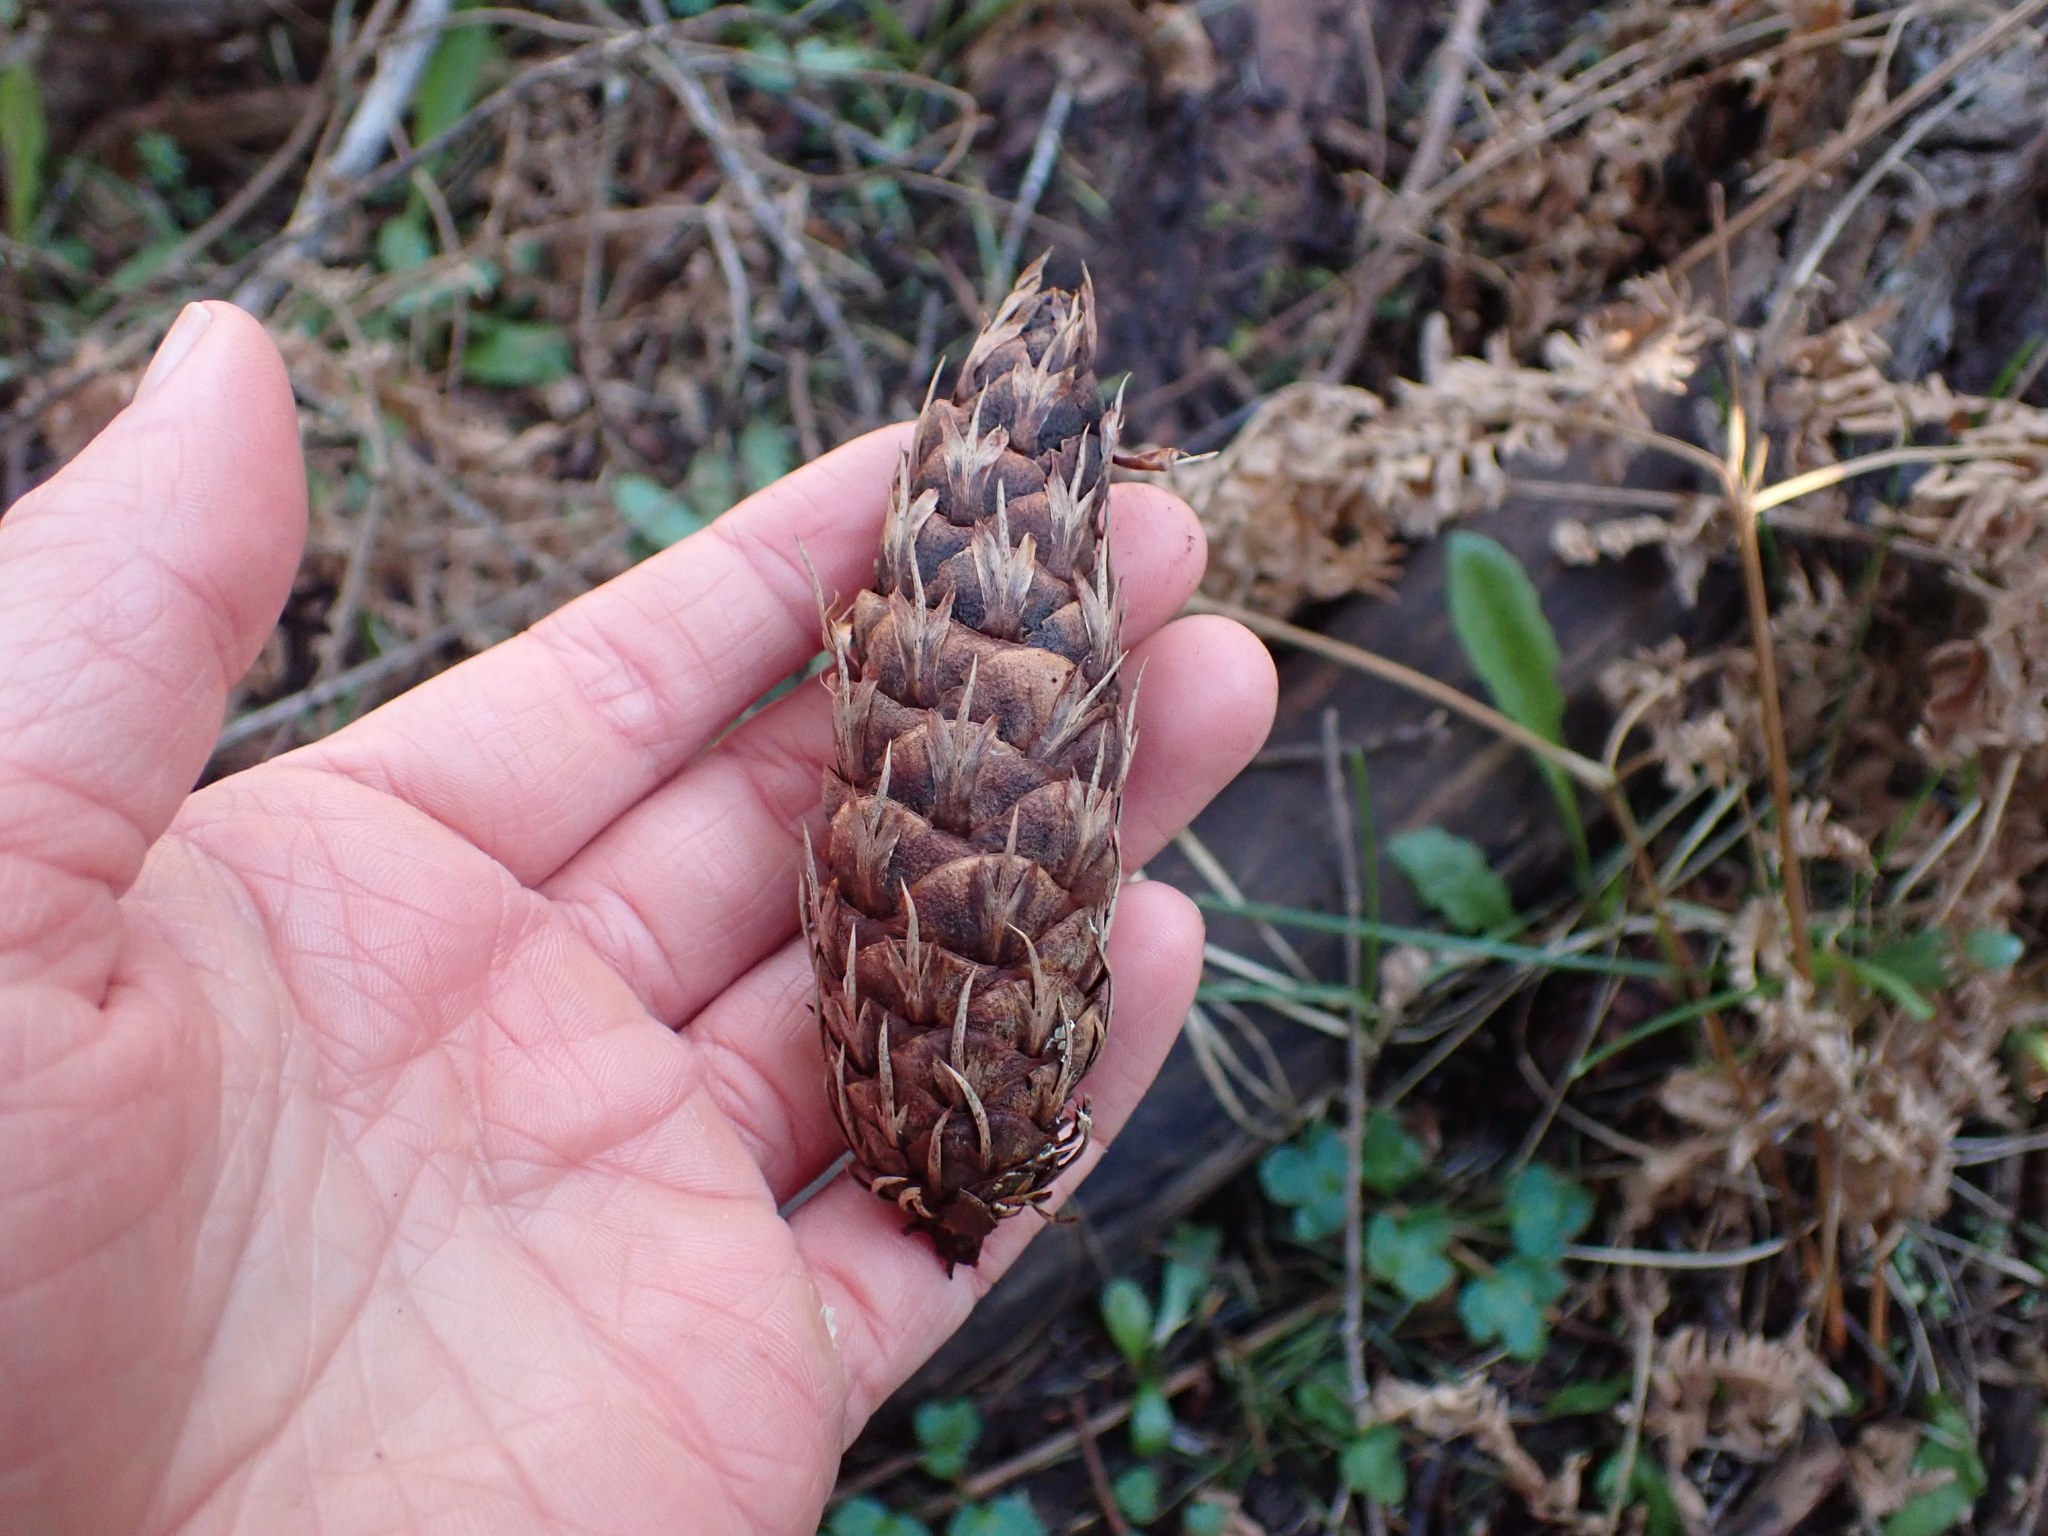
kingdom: Plantae
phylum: Tracheophyta
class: Pinopsida
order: Pinales
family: Pinaceae
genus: Pseudotsuga
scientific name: Pseudotsuga menziesii
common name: Douglas fir
